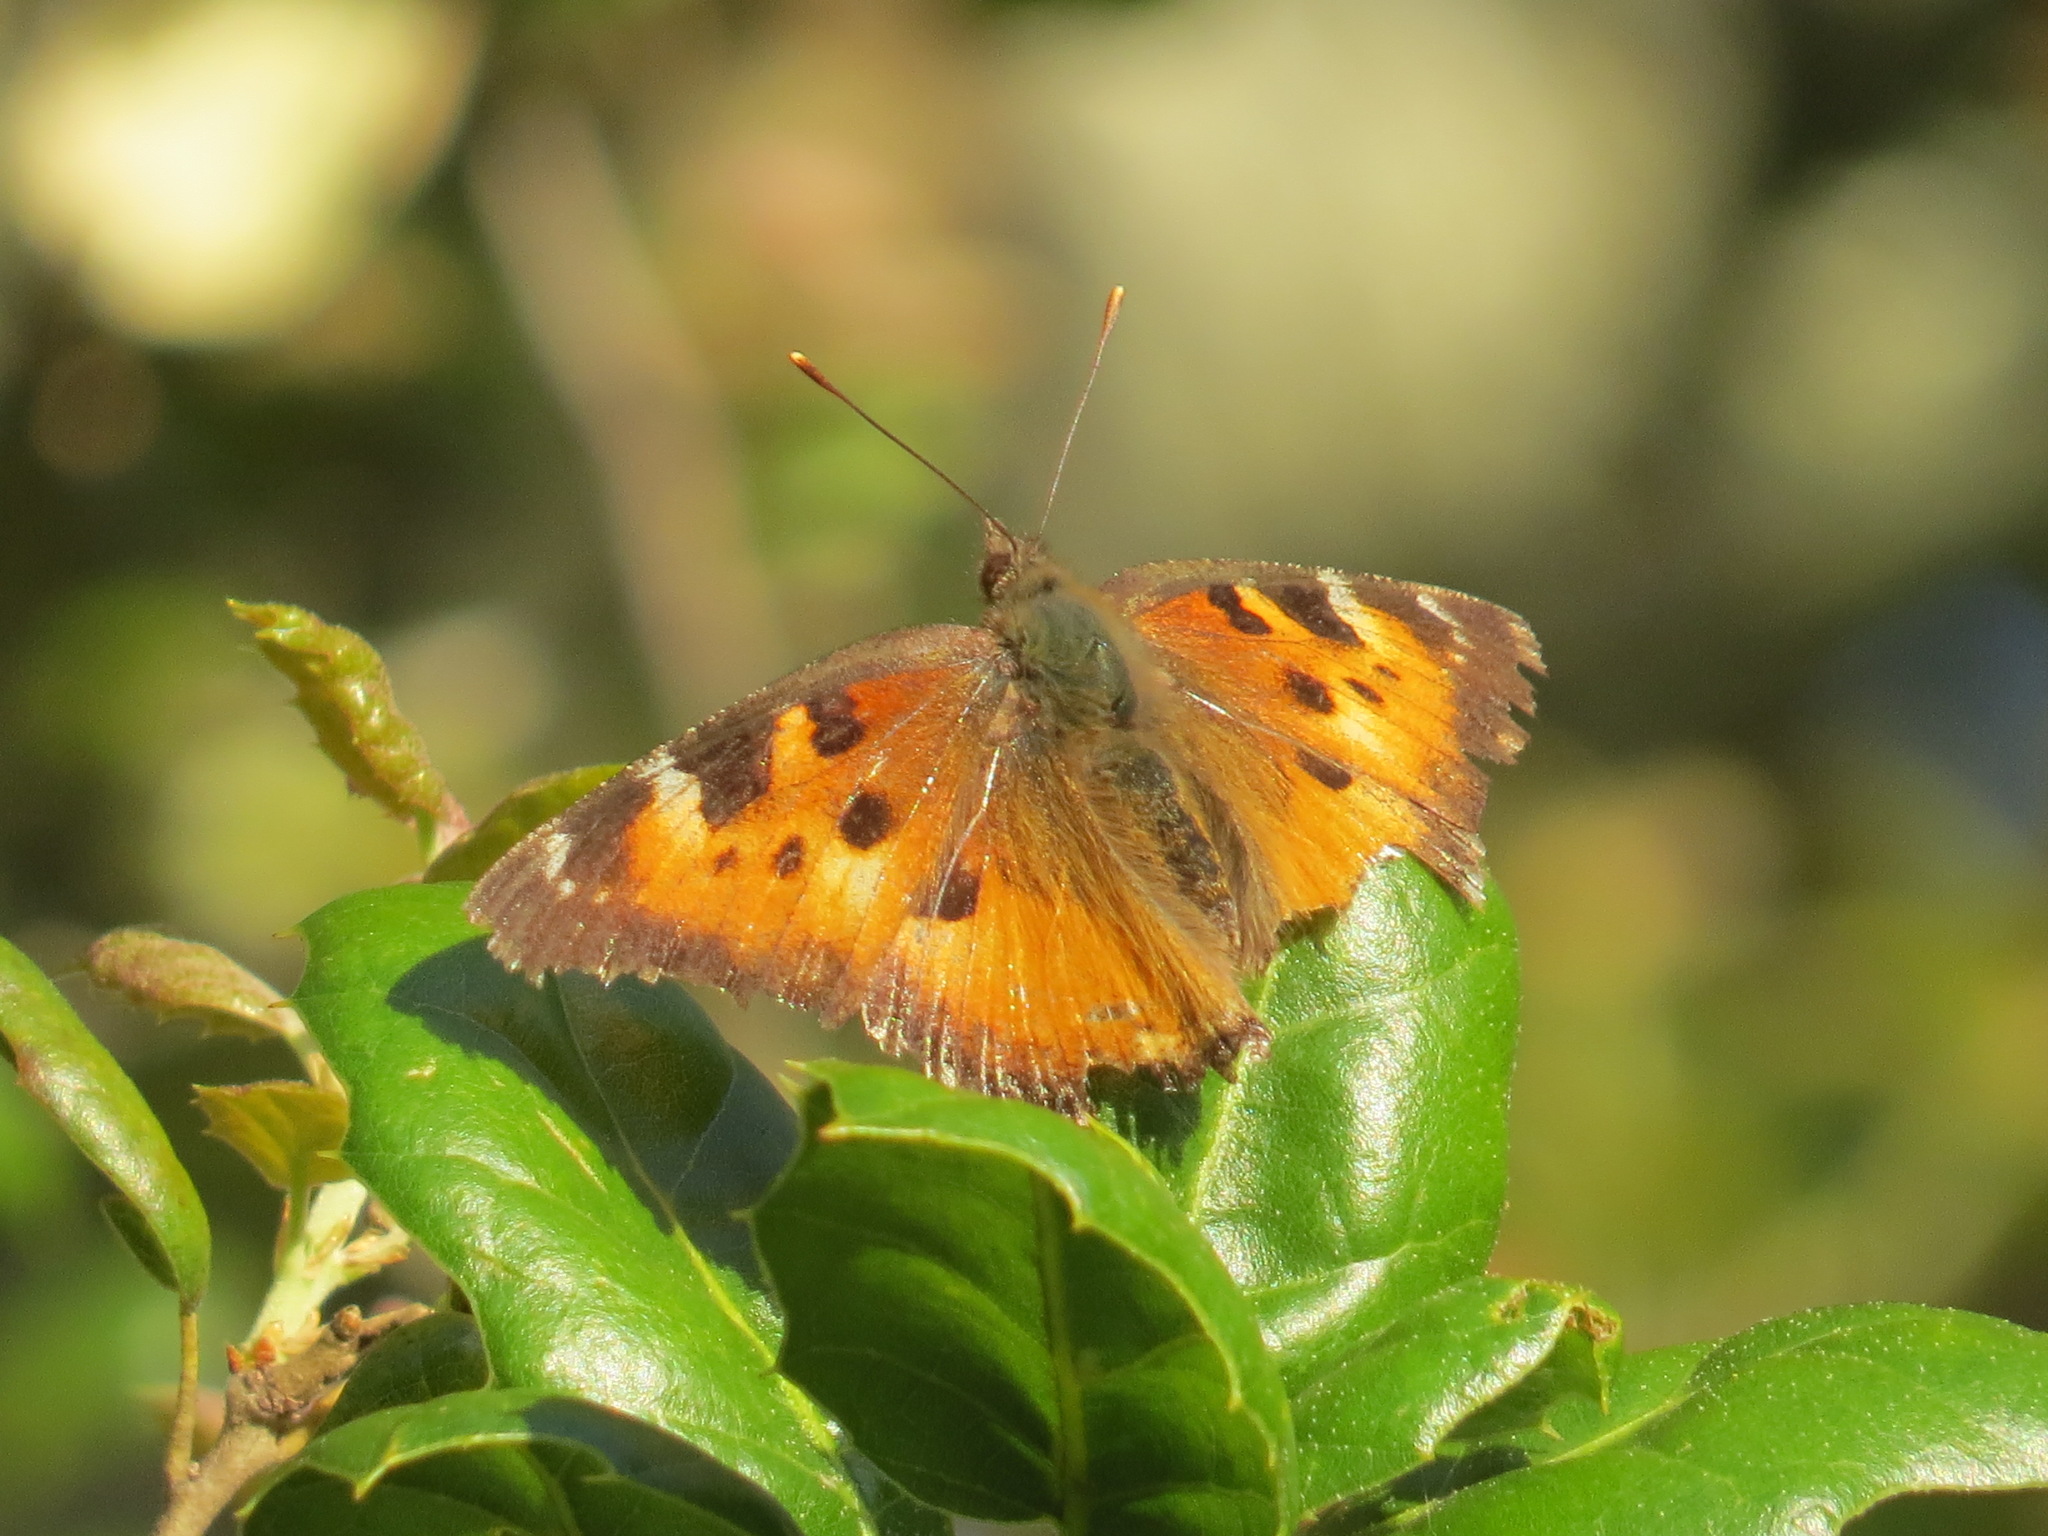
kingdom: Animalia
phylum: Arthropoda
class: Insecta
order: Lepidoptera
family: Nymphalidae
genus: Nymphalis
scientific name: Nymphalis californica
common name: California tortoiseshell
